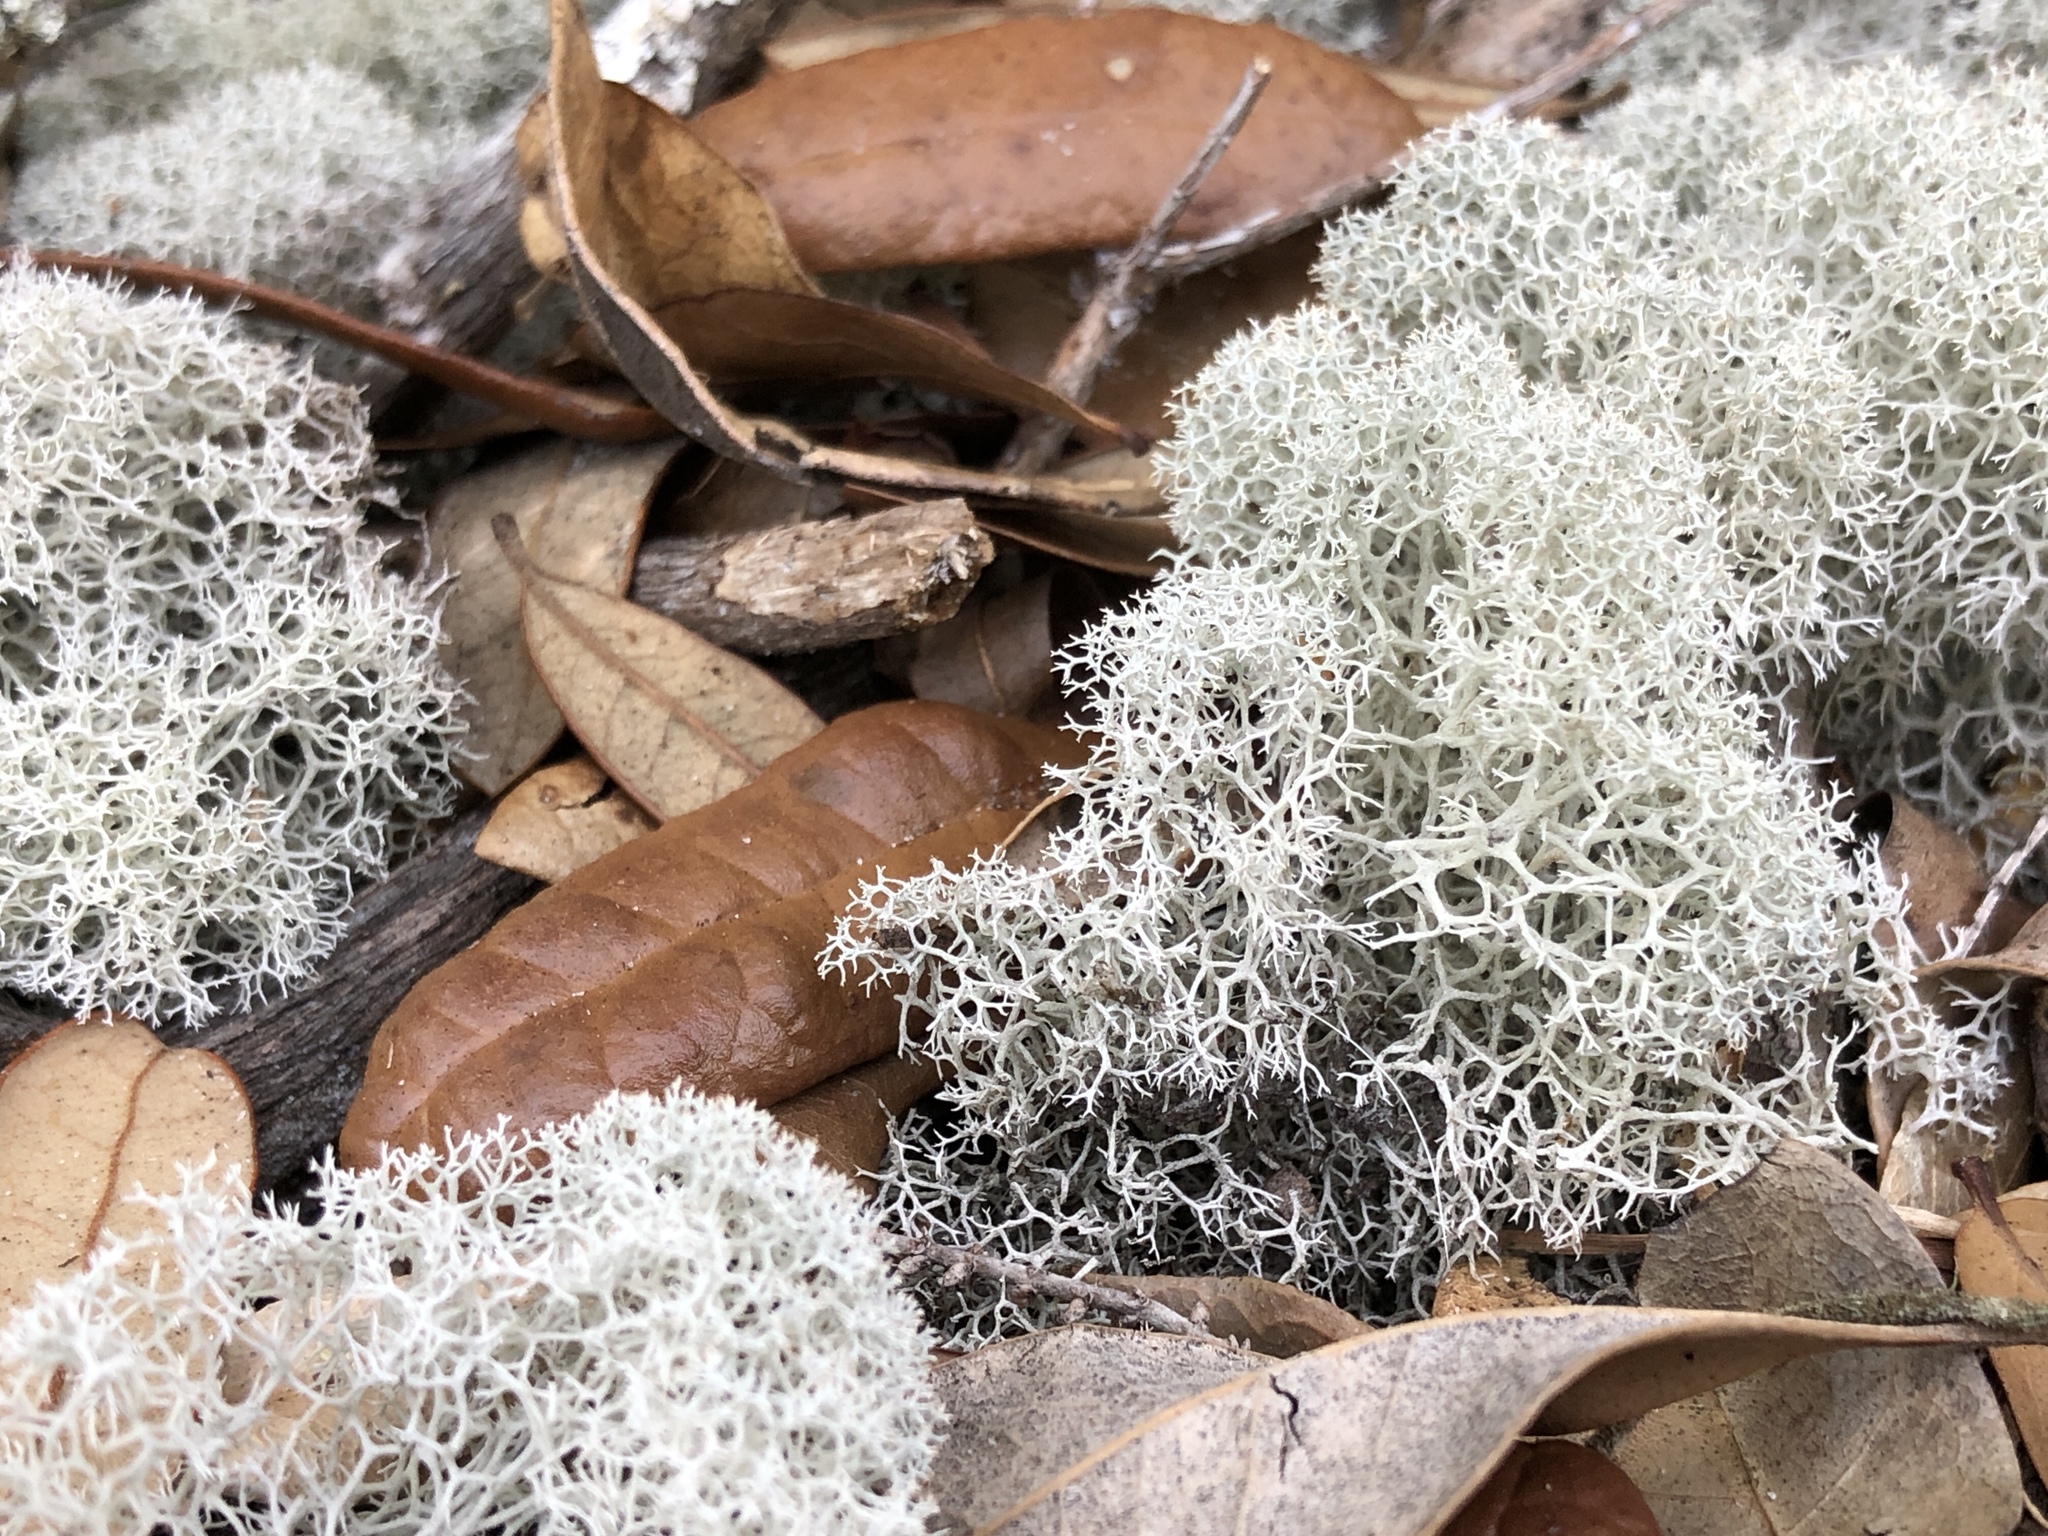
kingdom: Fungi
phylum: Ascomycota
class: Lecanoromycetes
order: Lecanorales
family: Cladoniaceae
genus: Cladonia
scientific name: Cladonia evansii
